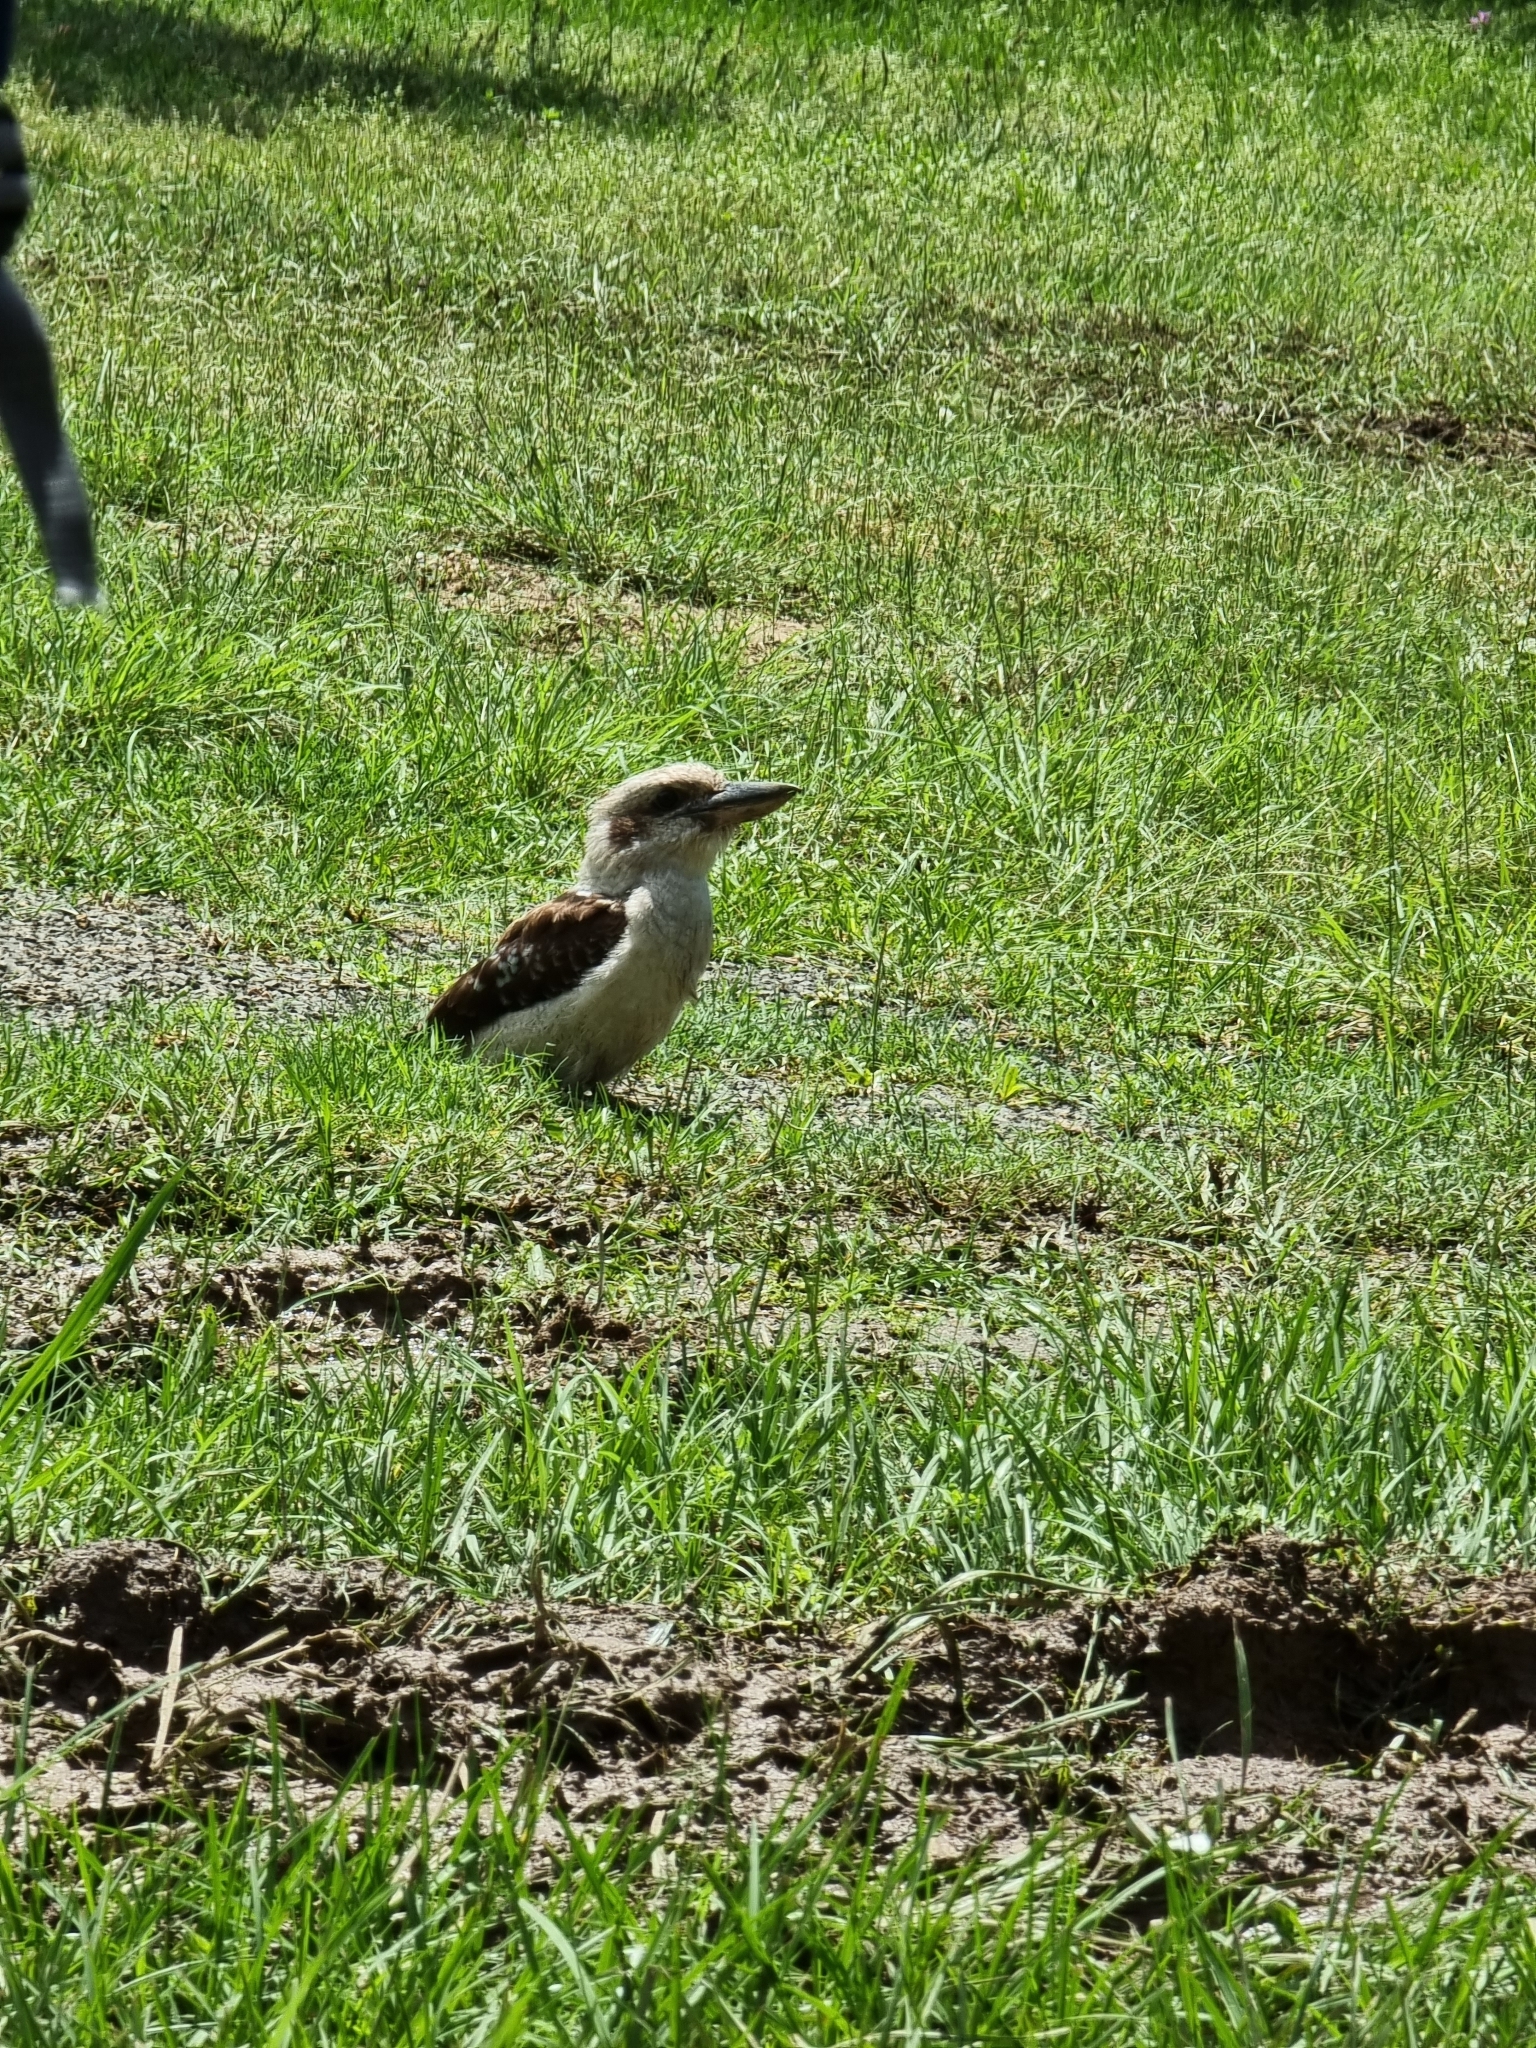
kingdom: Animalia
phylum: Chordata
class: Aves
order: Coraciiformes
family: Alcedinidae
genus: Dacelo
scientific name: Dacelo novaeguineae
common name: Laughing kookaburra
